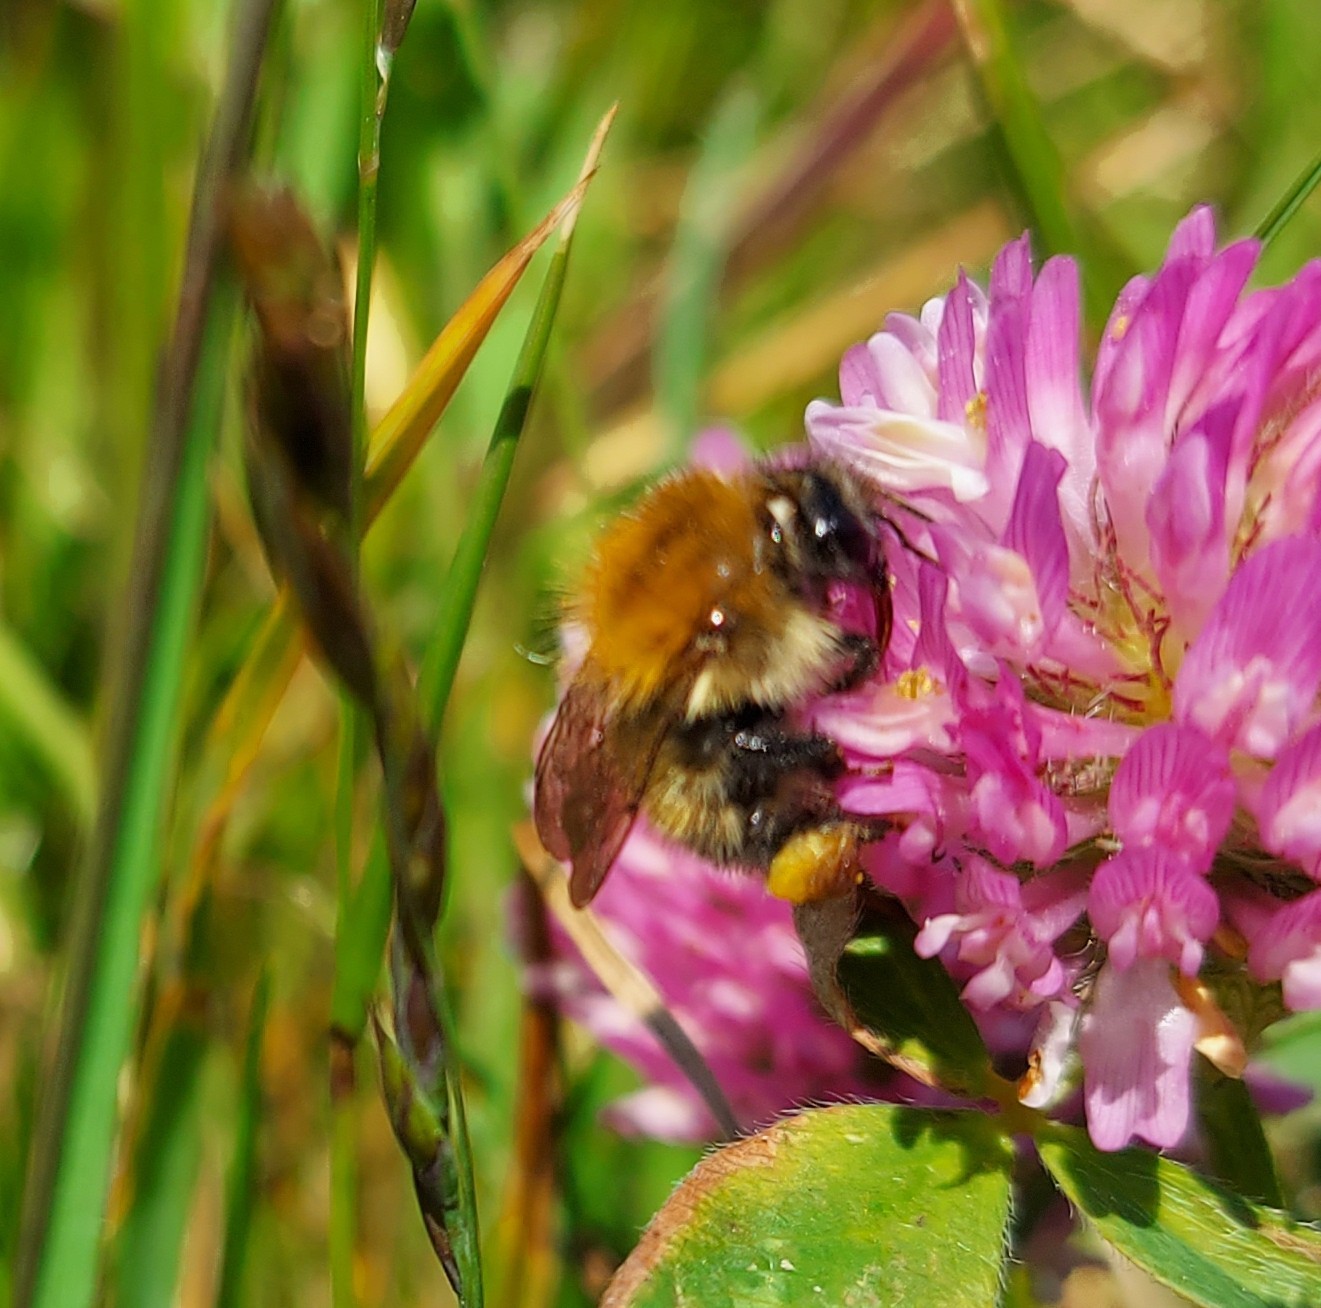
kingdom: Animalia
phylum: Arthropoda
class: Insecta
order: Hymenoptera
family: Apidae
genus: Bombus
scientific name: Bombus pascuorum
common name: Common carder bee
